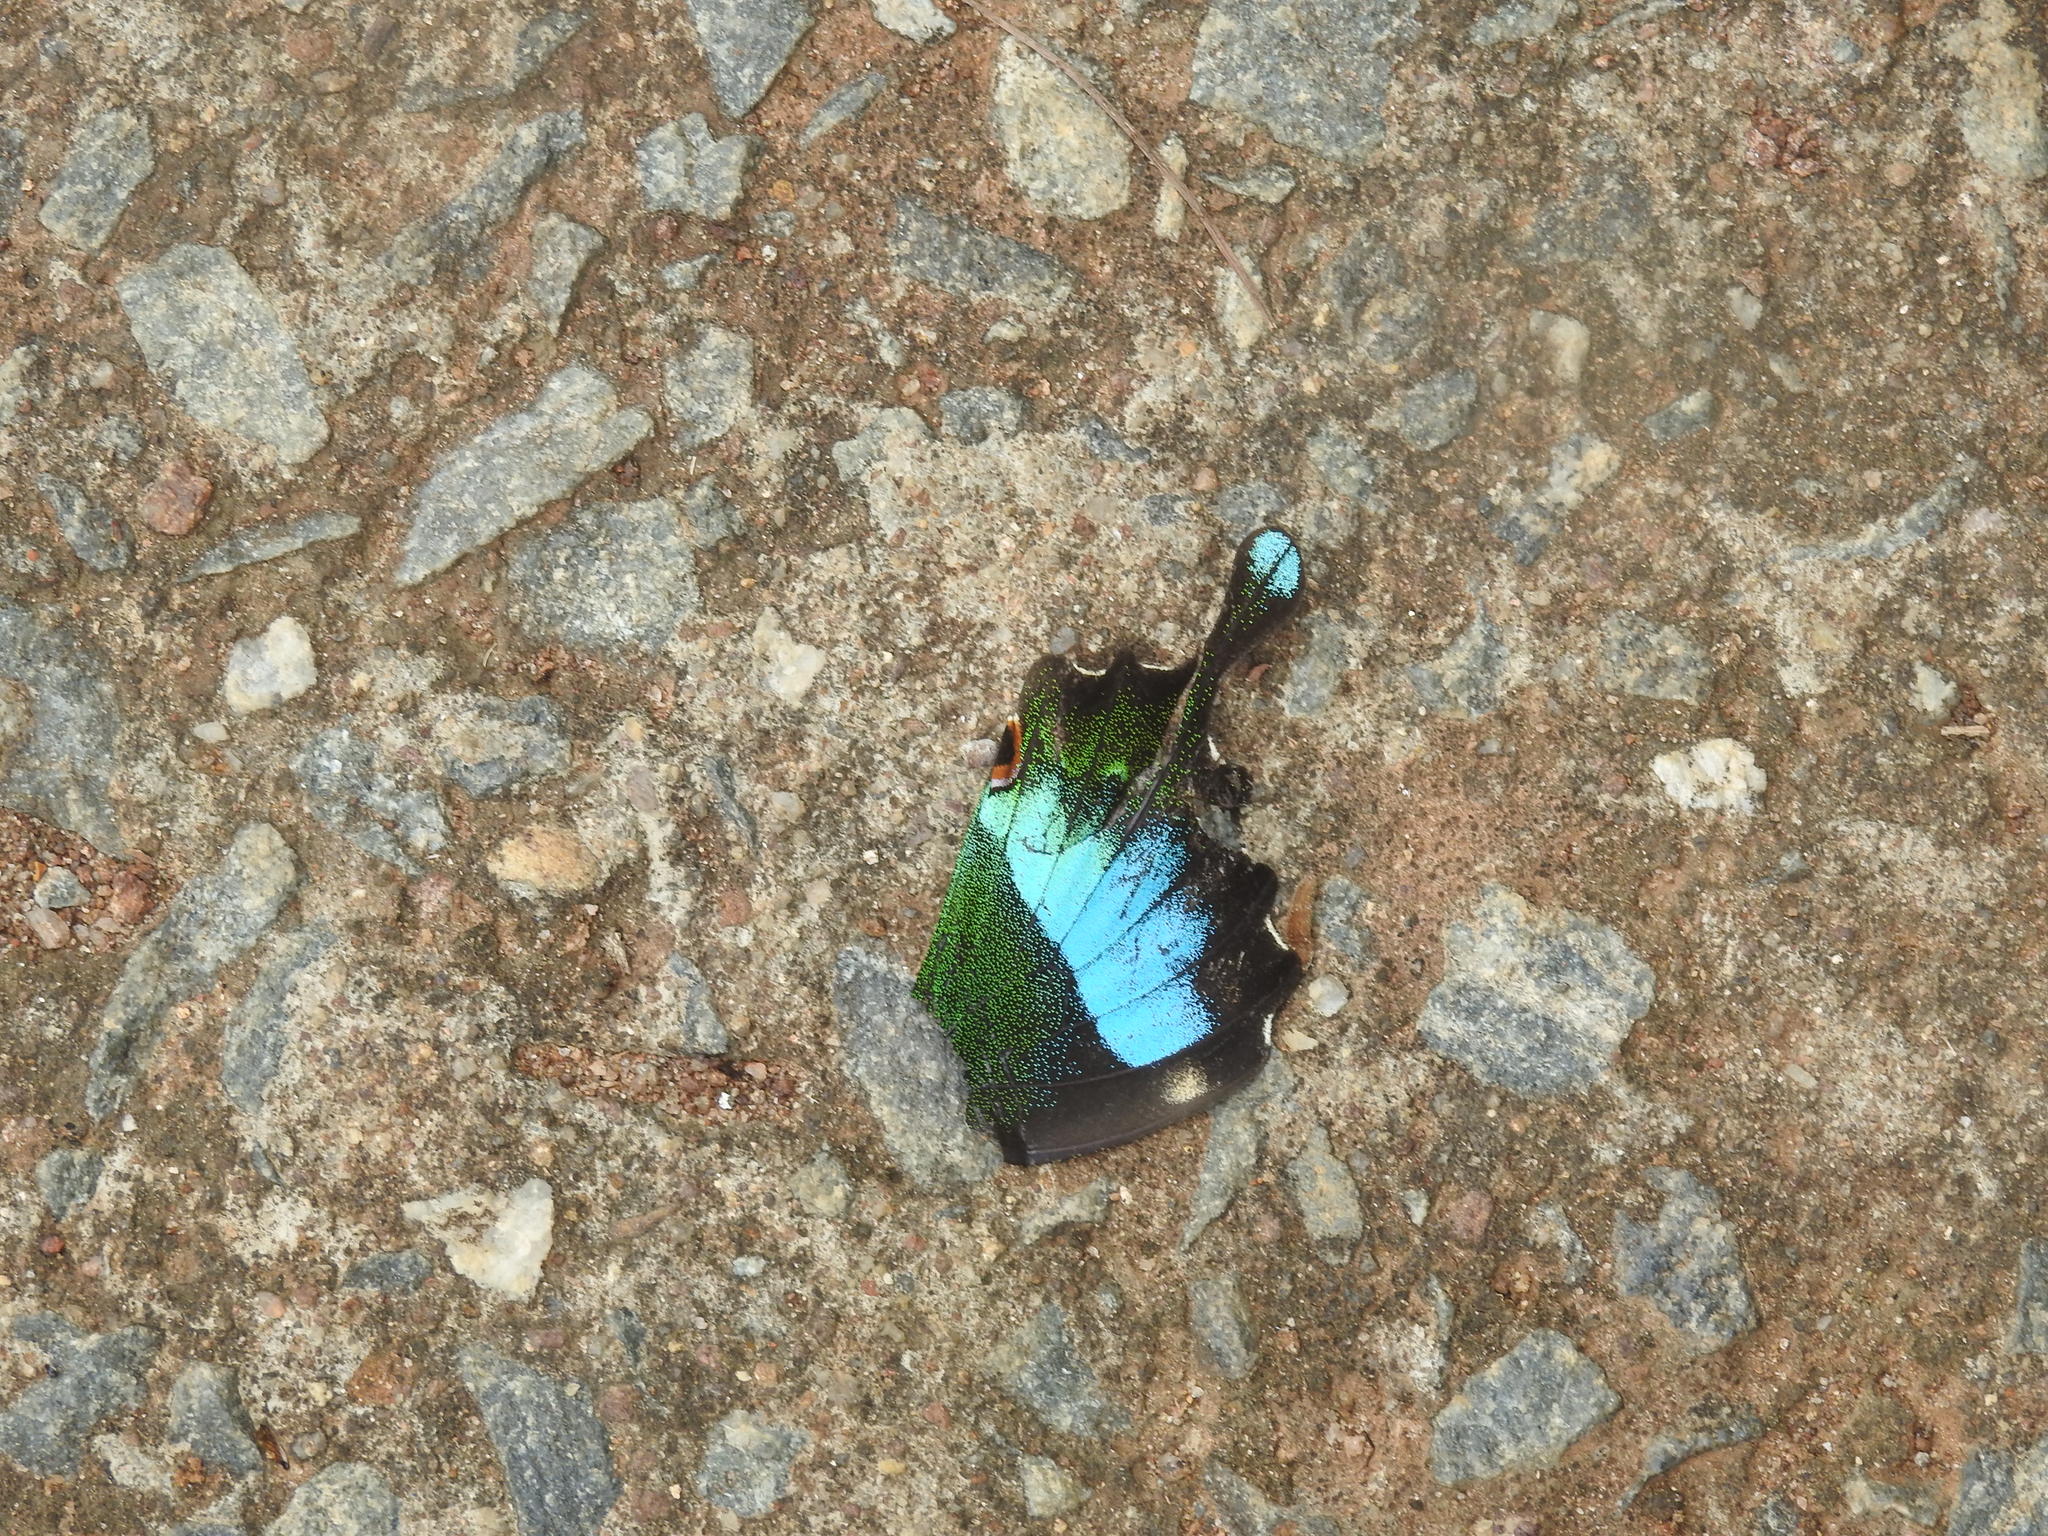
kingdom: Animalia
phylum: Arthropoda
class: Insecta
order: Lepidoptera
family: Papilionidae
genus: Papilio
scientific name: Papilio crino
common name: Common banded peacock
